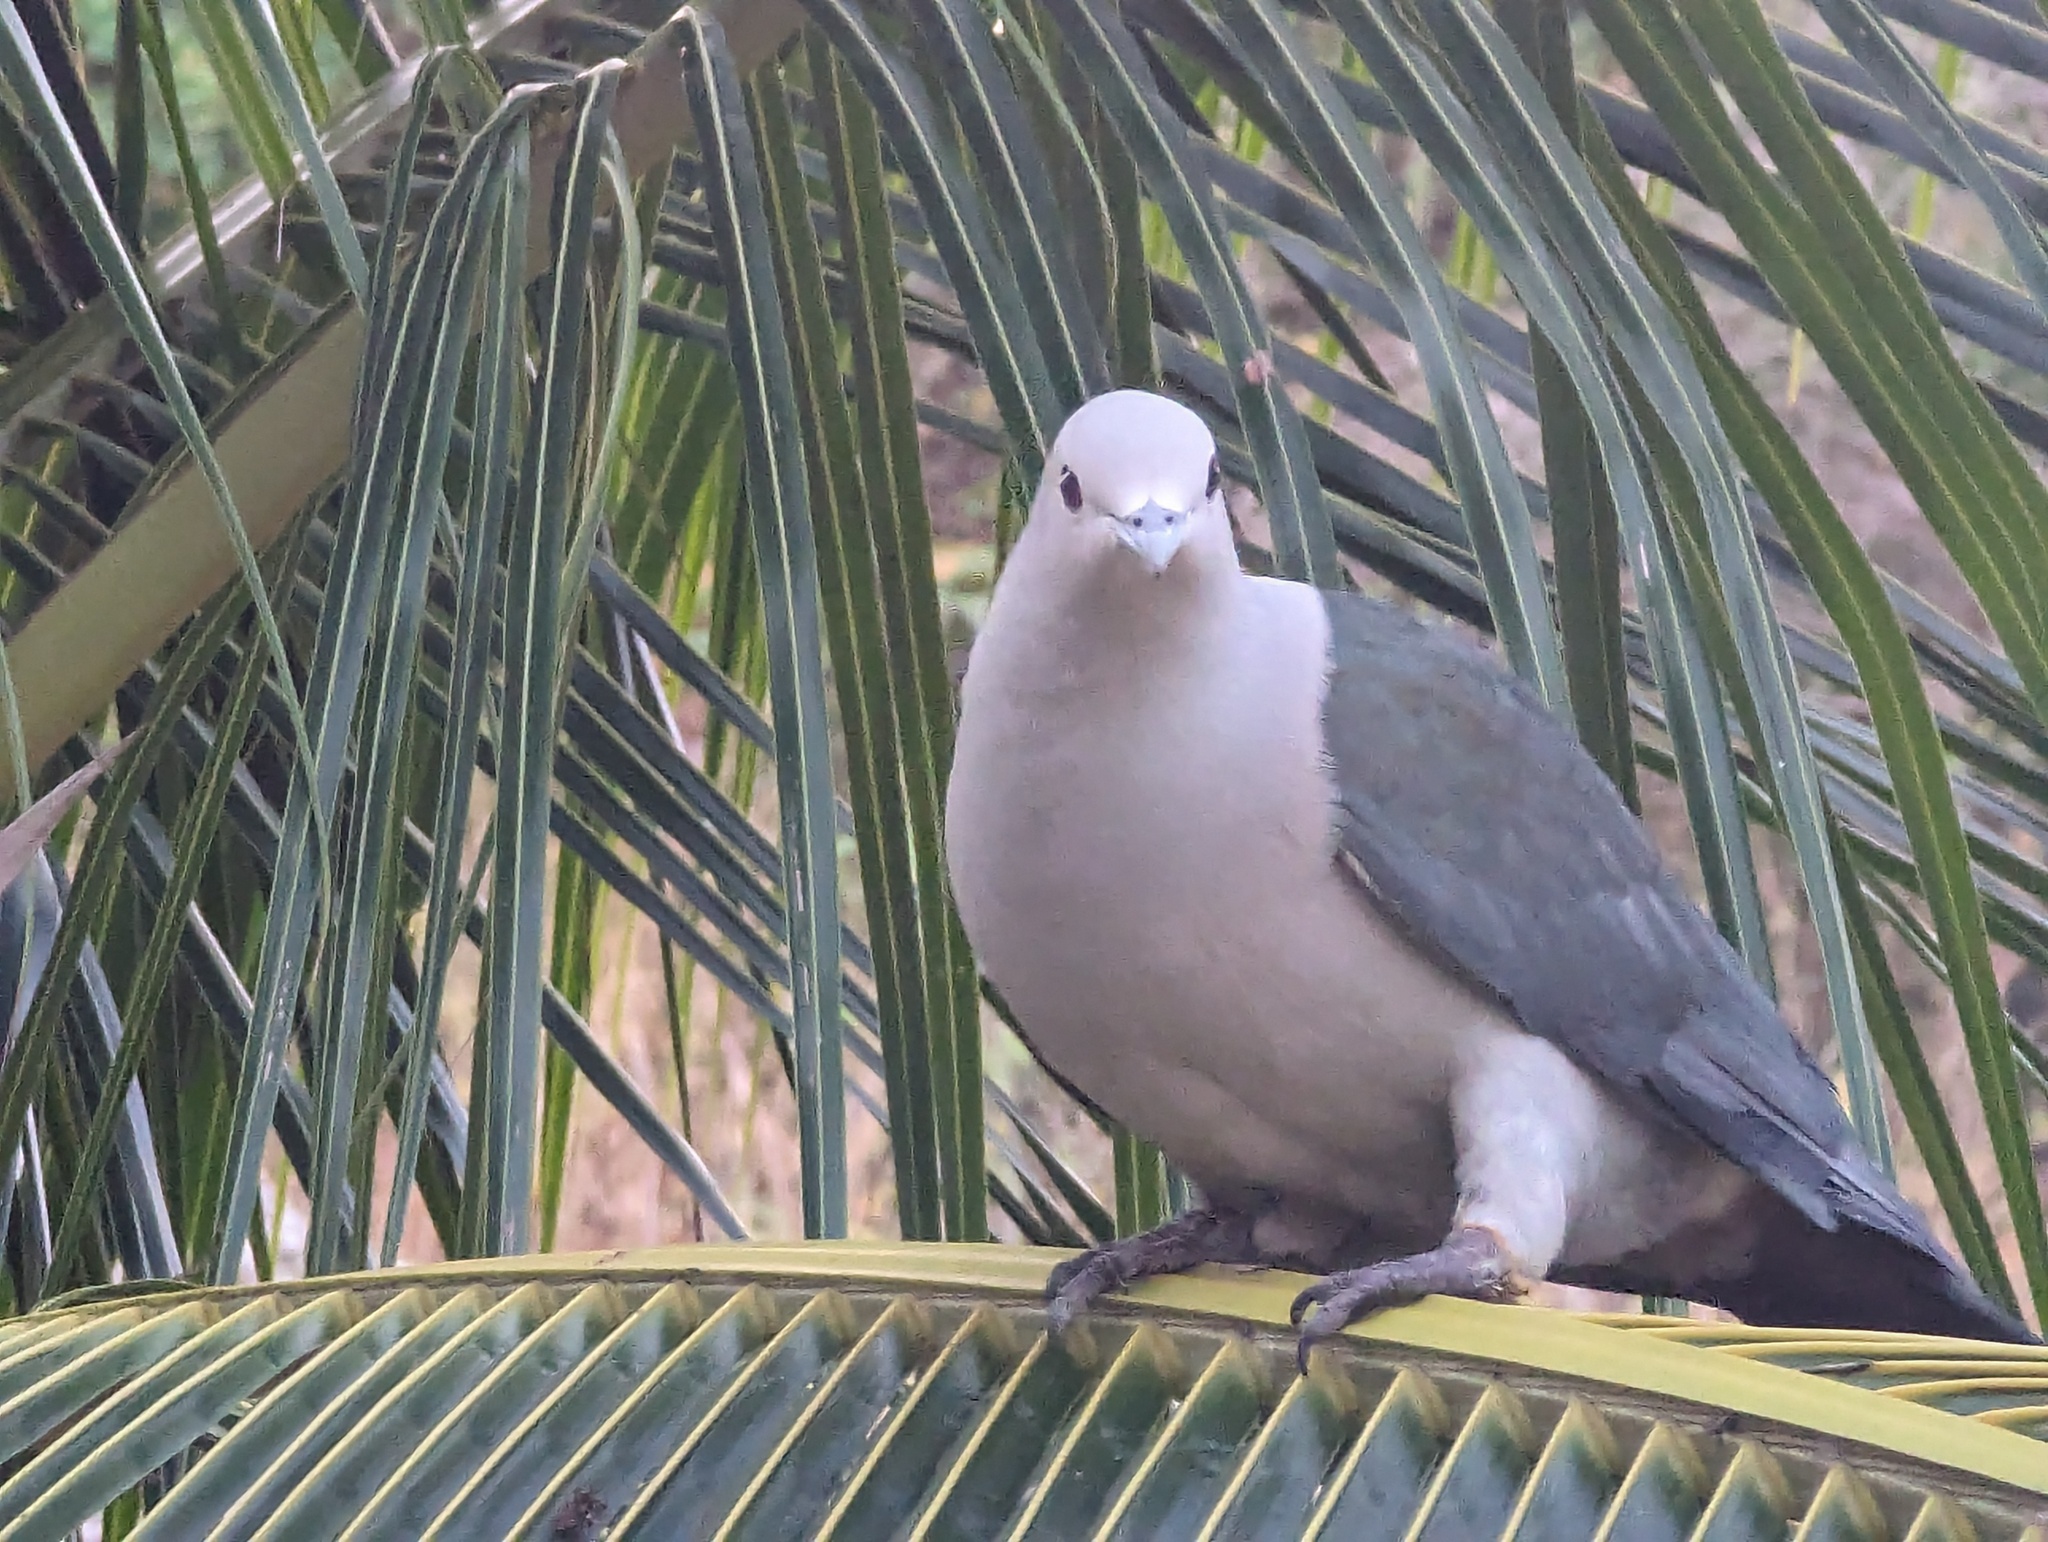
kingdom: Animalia
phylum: Chordata
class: Aves
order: Columbiformes
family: Columbidae
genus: Ducula
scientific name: Ducula aenea
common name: Green imperial pigeon
